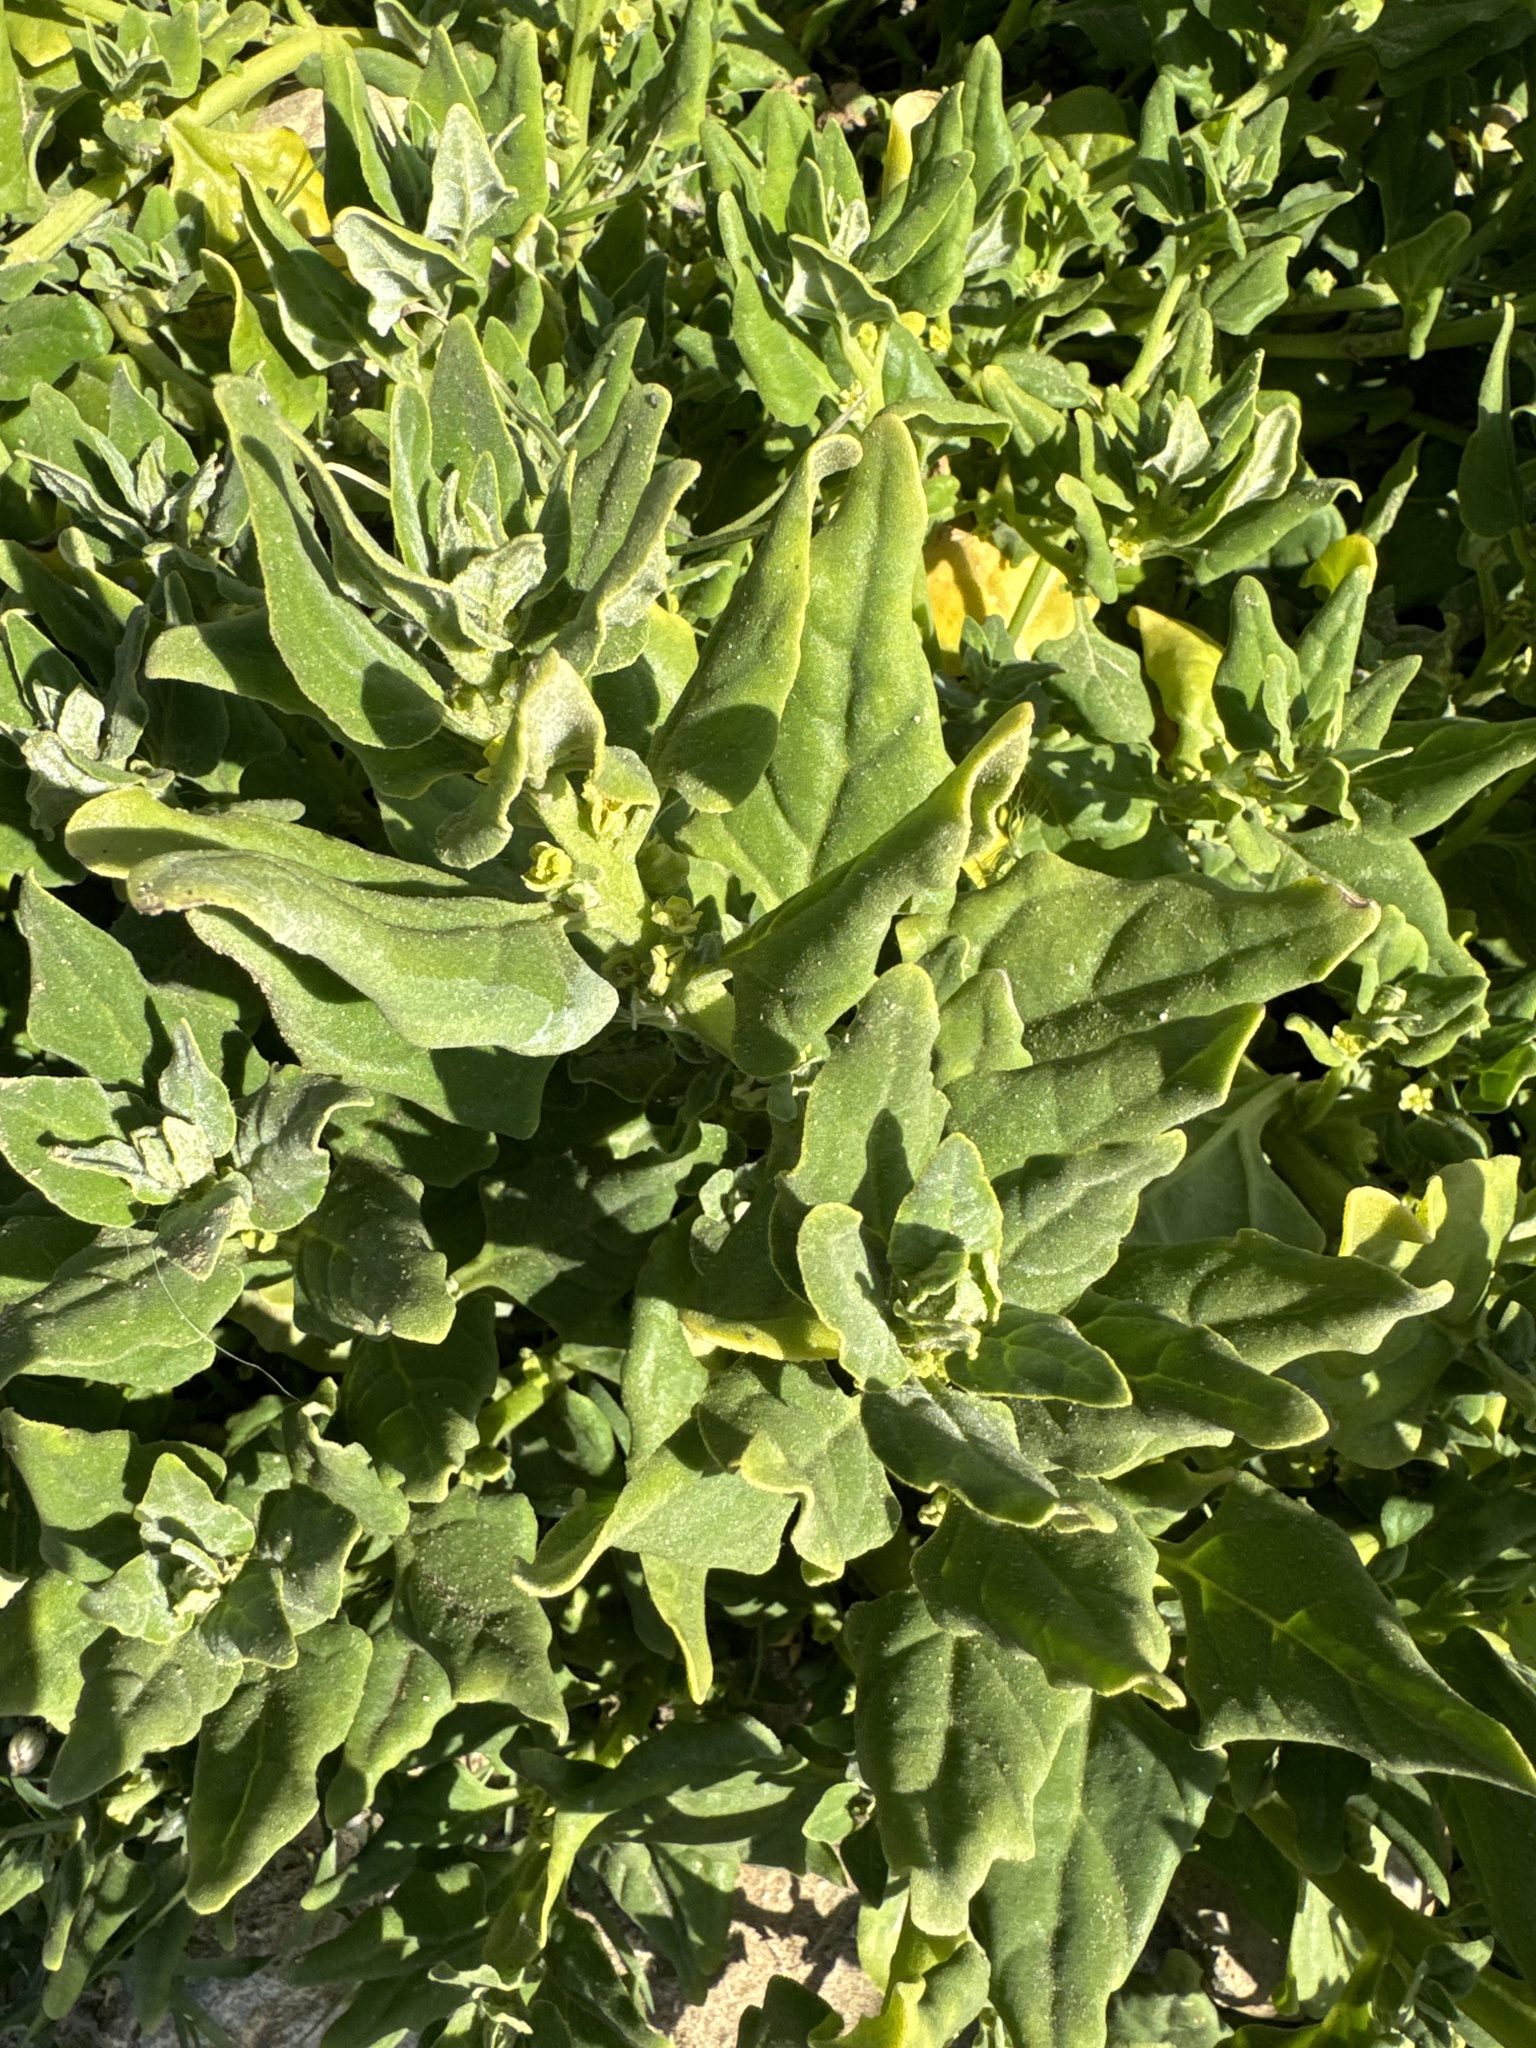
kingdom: Plantae
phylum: Tracheophyta
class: Magnoliopsida
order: Caryophyllales
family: Aizoaceae
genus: Tetragonia
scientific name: Tetragonia tetragonoides
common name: New zealand-spinach
